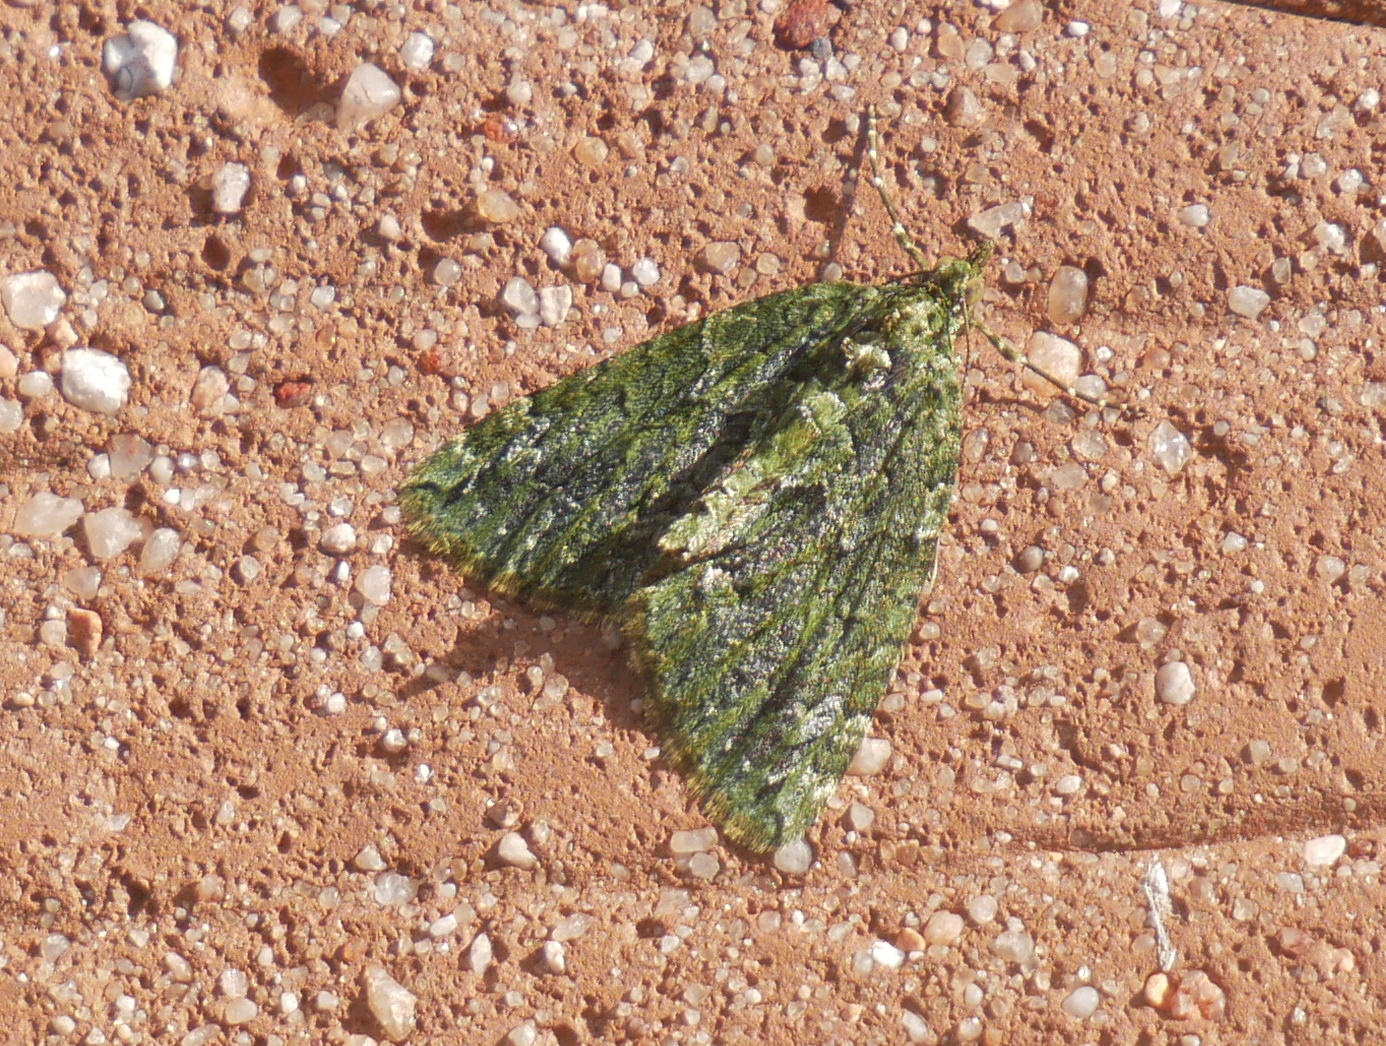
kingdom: Animalia
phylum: Arthropoda
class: Insecta
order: Lepidoptera
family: Geometridae
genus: Chloroclysta
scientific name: Chloroclysta siterata
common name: Red-green carpet
